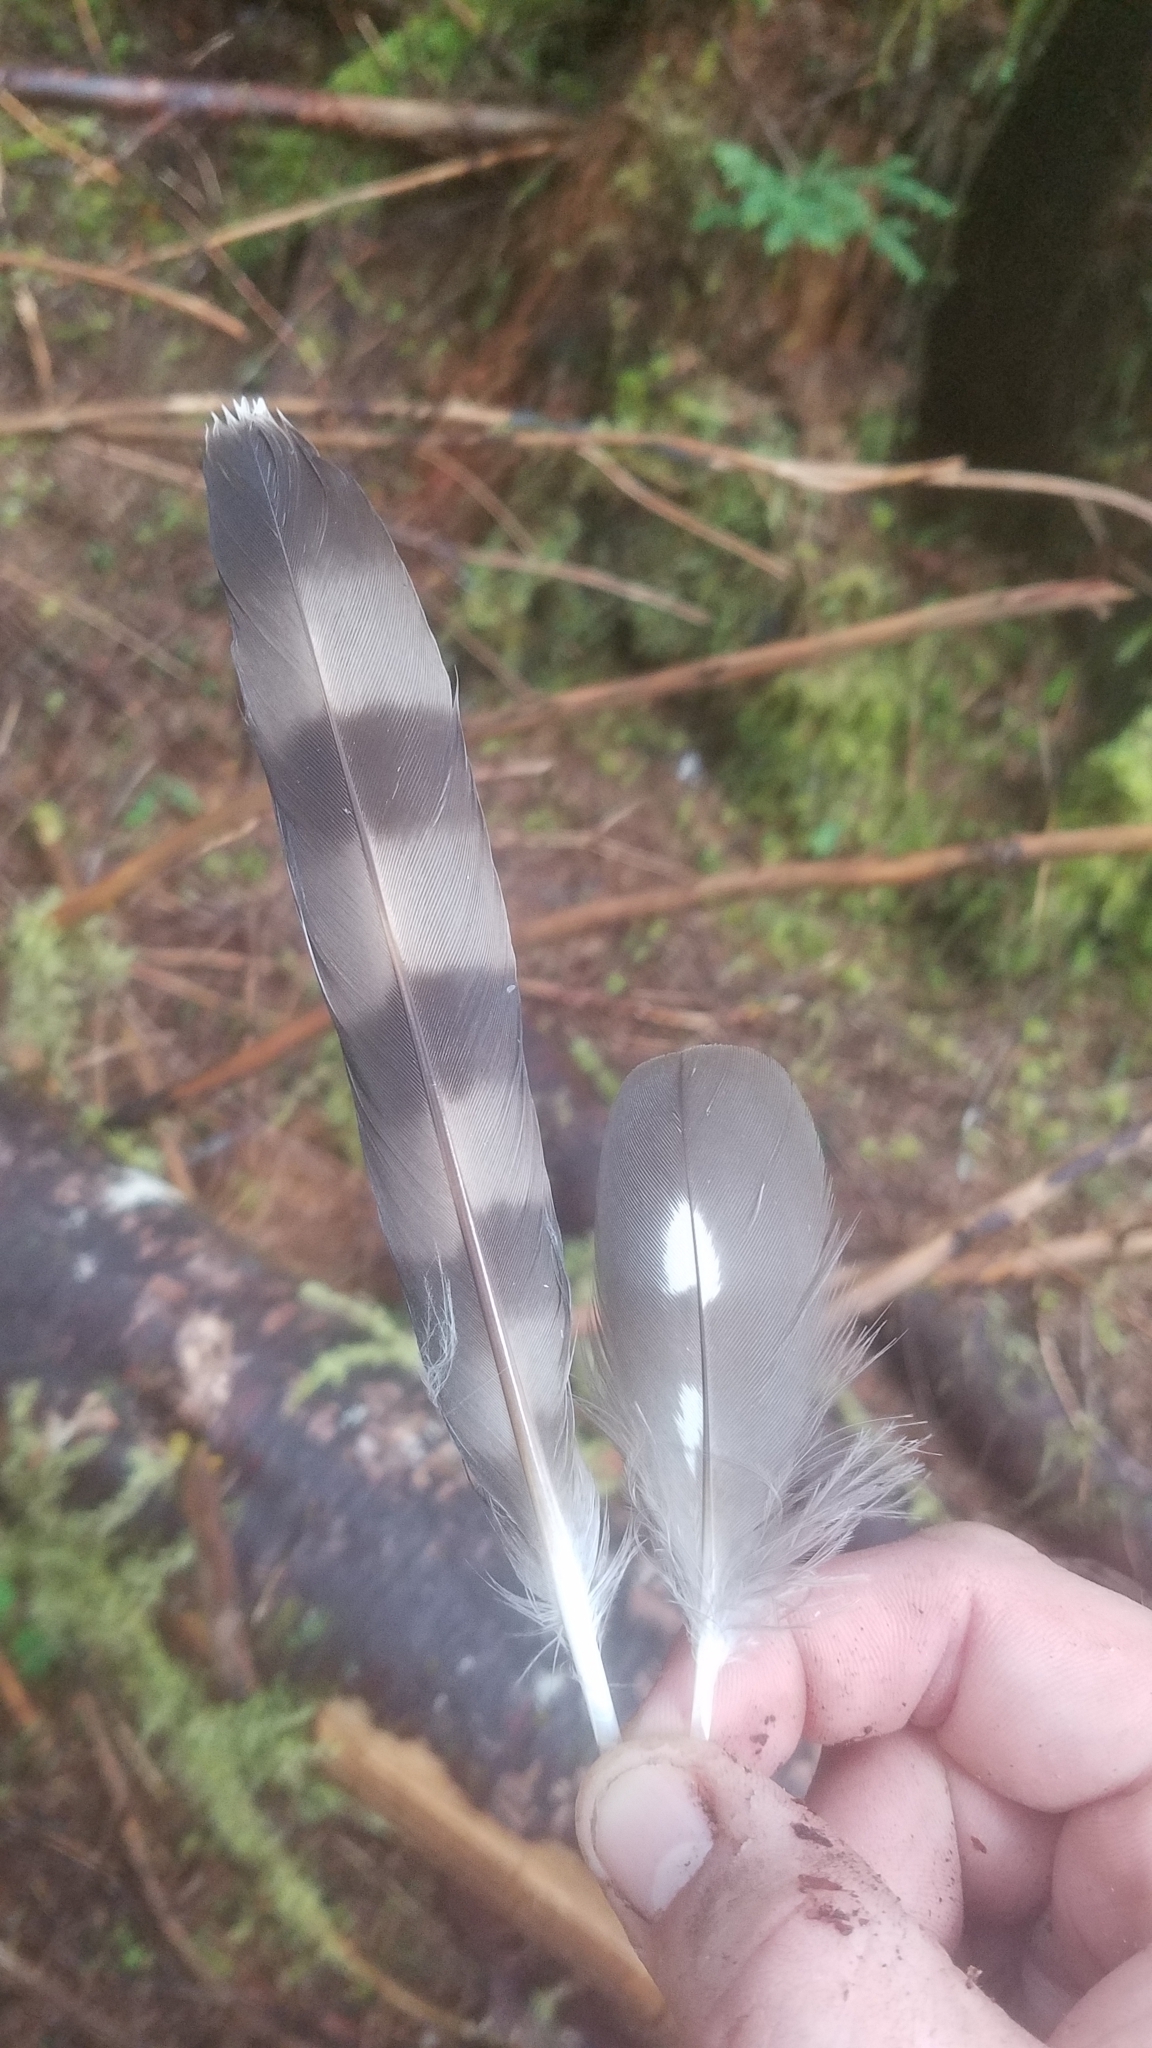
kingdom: Animalia
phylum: Chordata
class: Aves
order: Accipitriformes
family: Accipitridae
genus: Accipiter
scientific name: Accipiter striatus
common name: Sharp-shinned hawk
